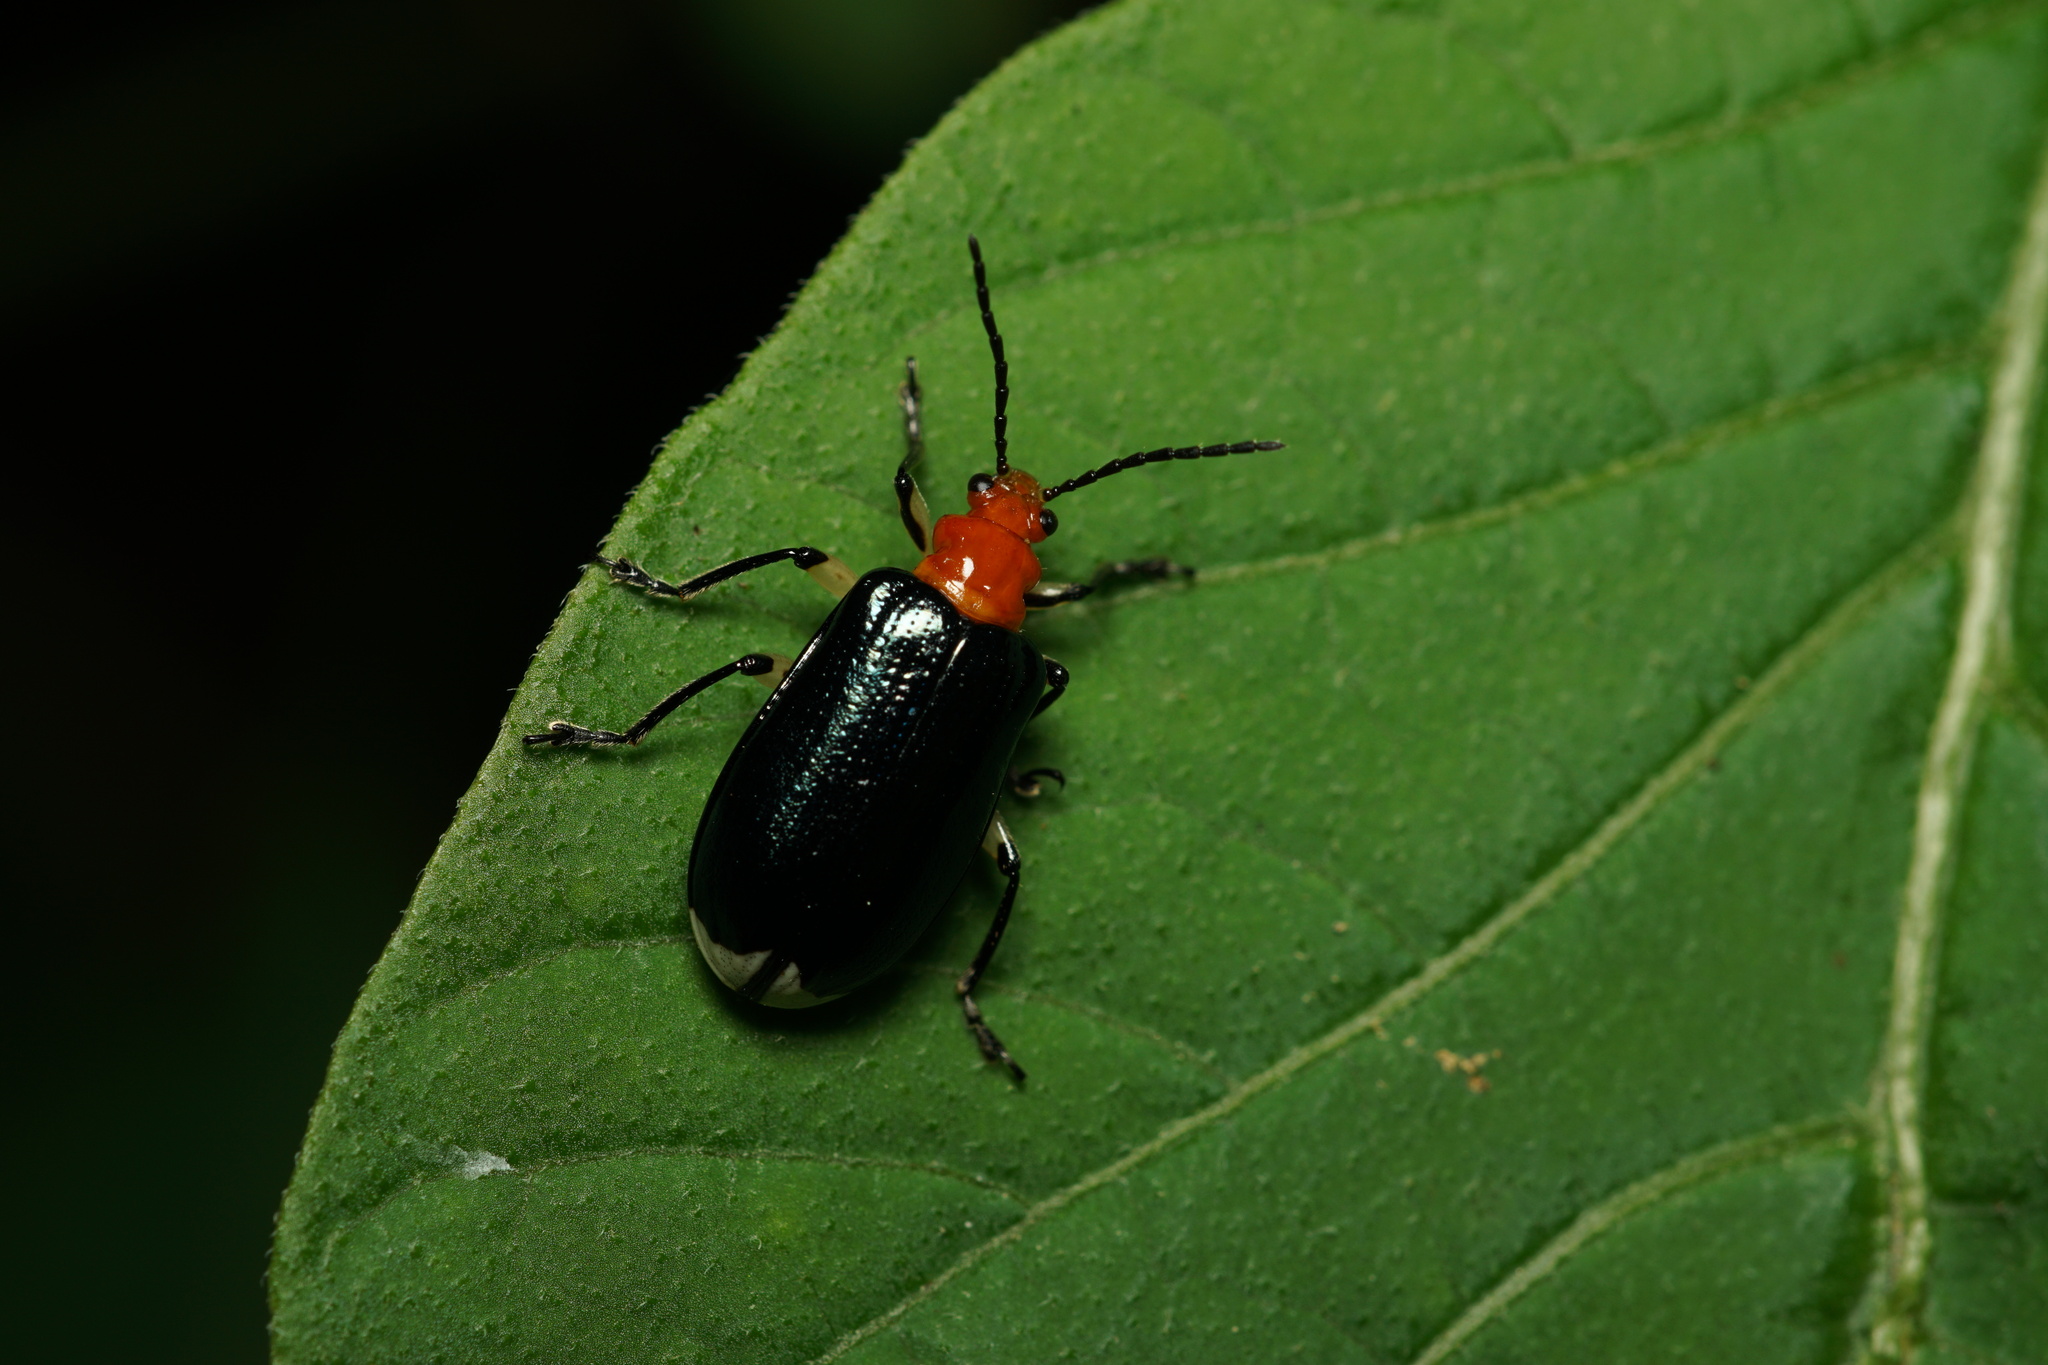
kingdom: Animalia
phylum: Arthropoda
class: Insecta
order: Coleoptera
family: Chrysomelidae
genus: Stolas
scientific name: Stolas chalybaea
